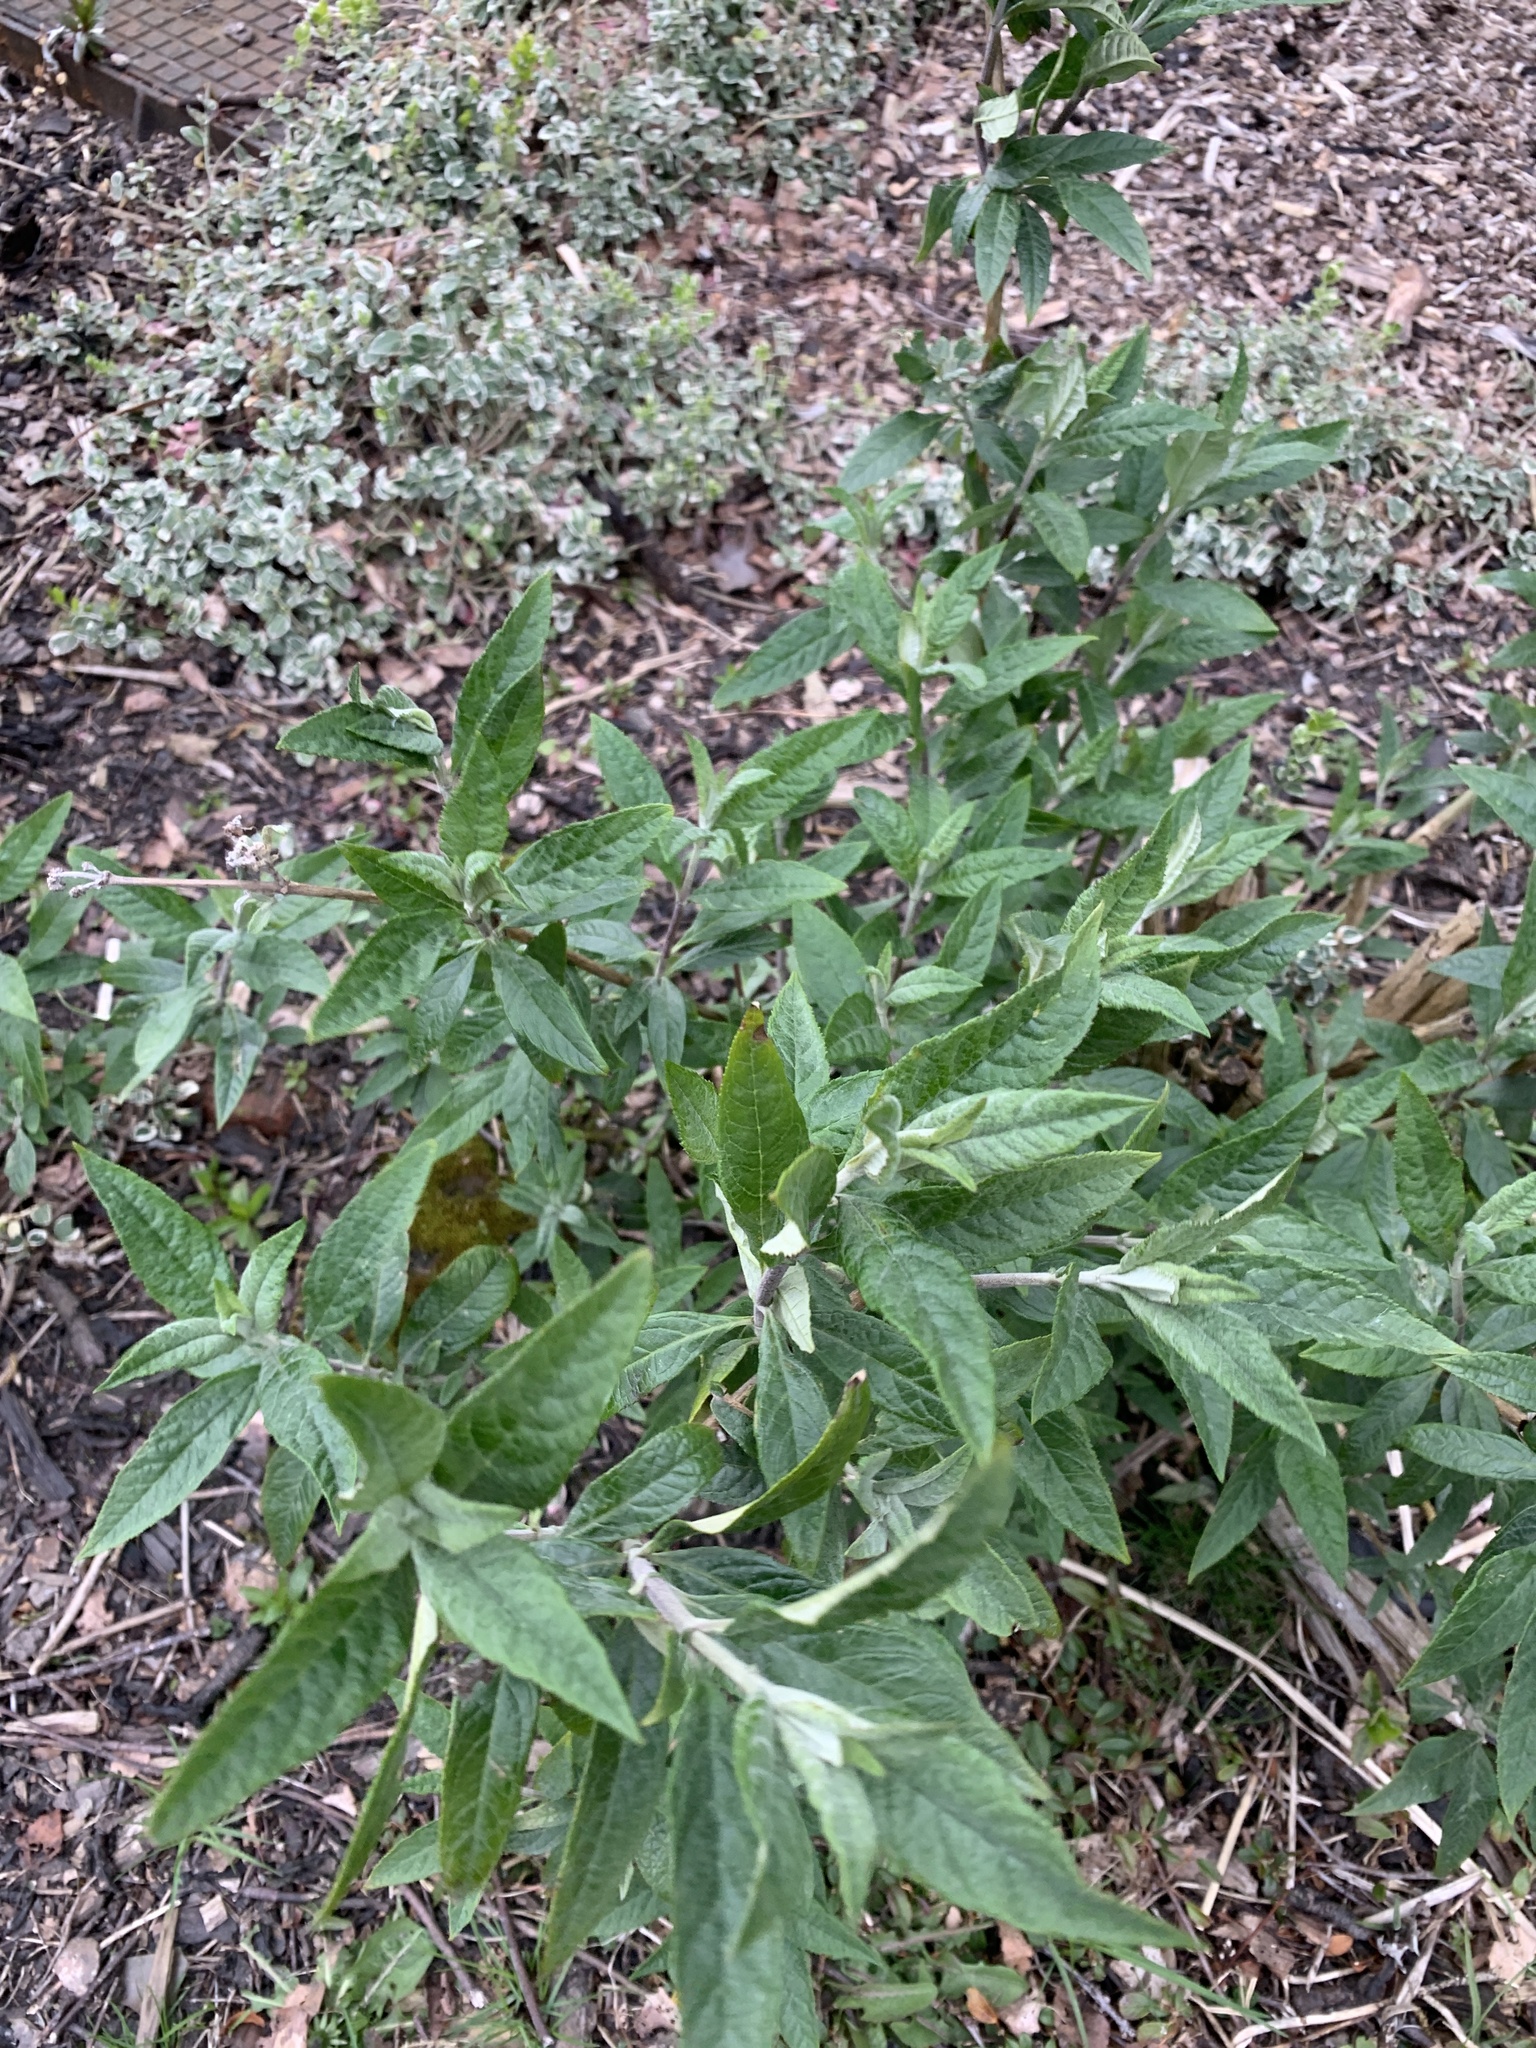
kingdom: Plantae
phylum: Tracheophyta
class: Magnoliopsida
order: Lamiales
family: Scrophulariaceae
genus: Buddleja
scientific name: Buddleja davidii
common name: Butterfly-bush
